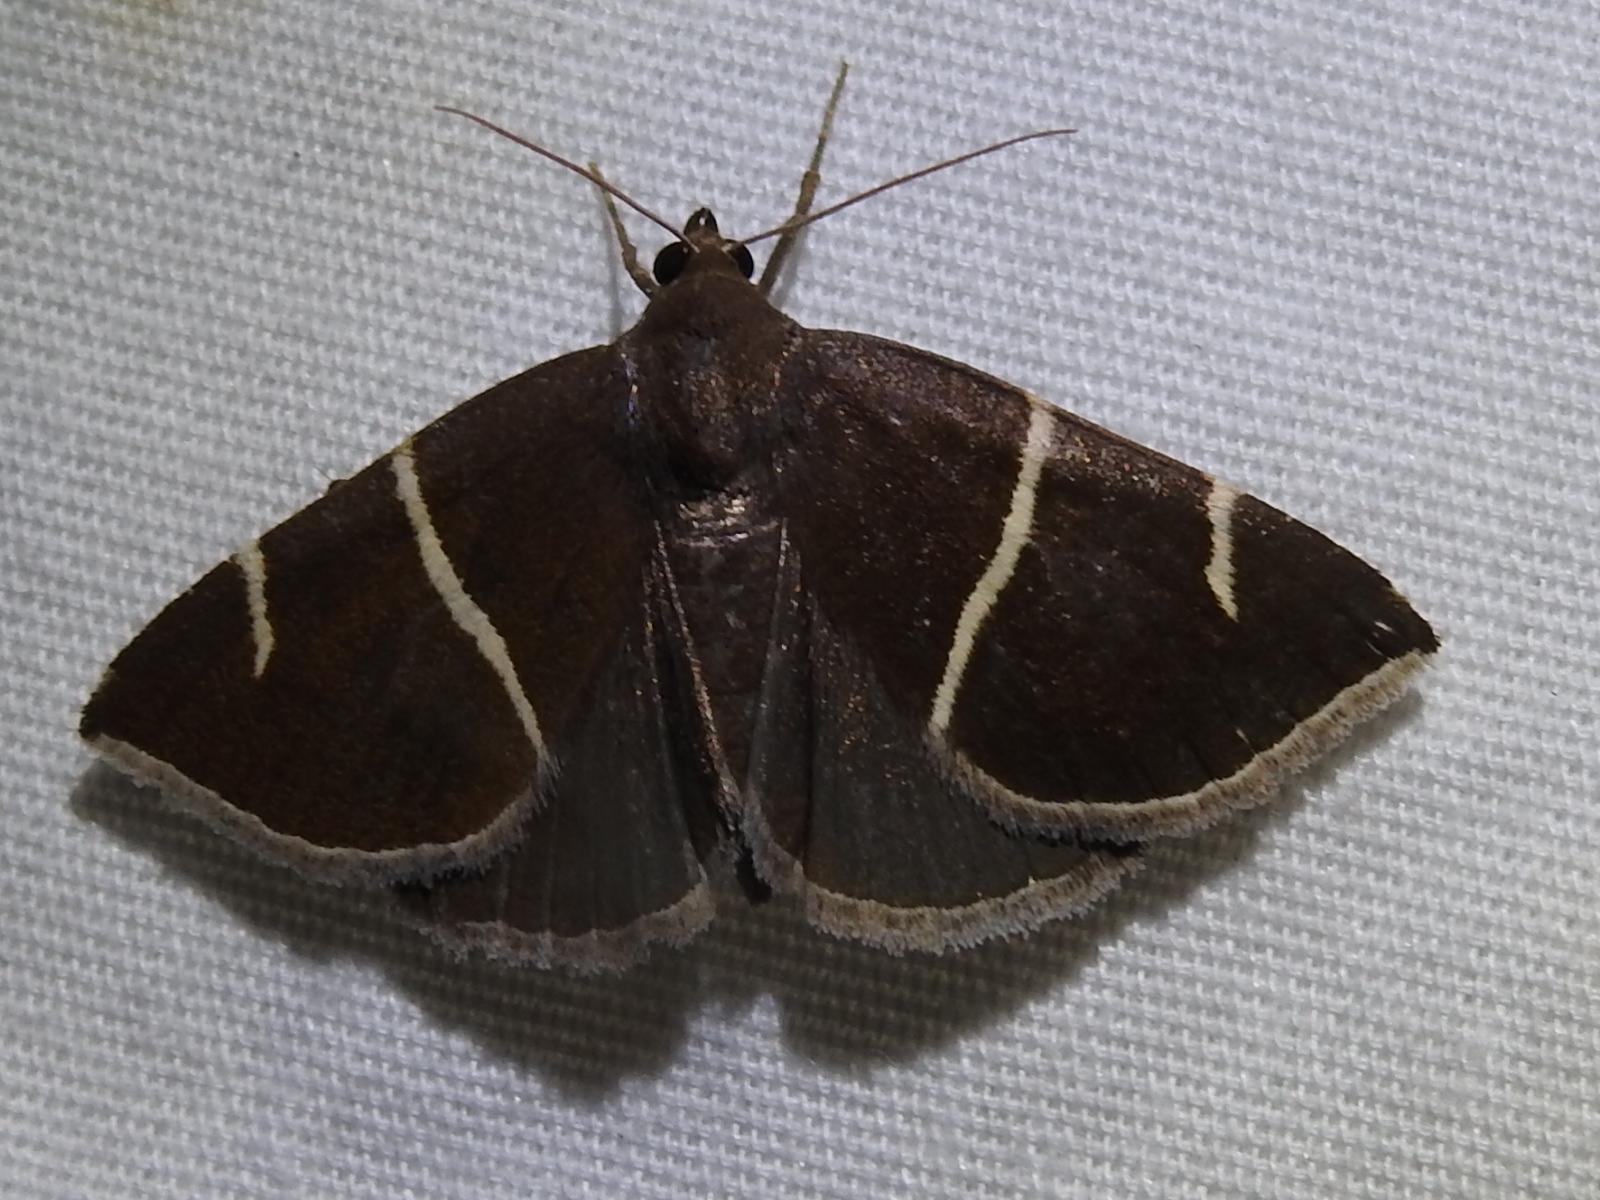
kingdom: Animalia
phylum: Arthropoda
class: Insecta
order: Lepidoptera
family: Erebidae
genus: Argyrostrotis
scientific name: Argyrostrotis anilis
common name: Short-lined chocolate
